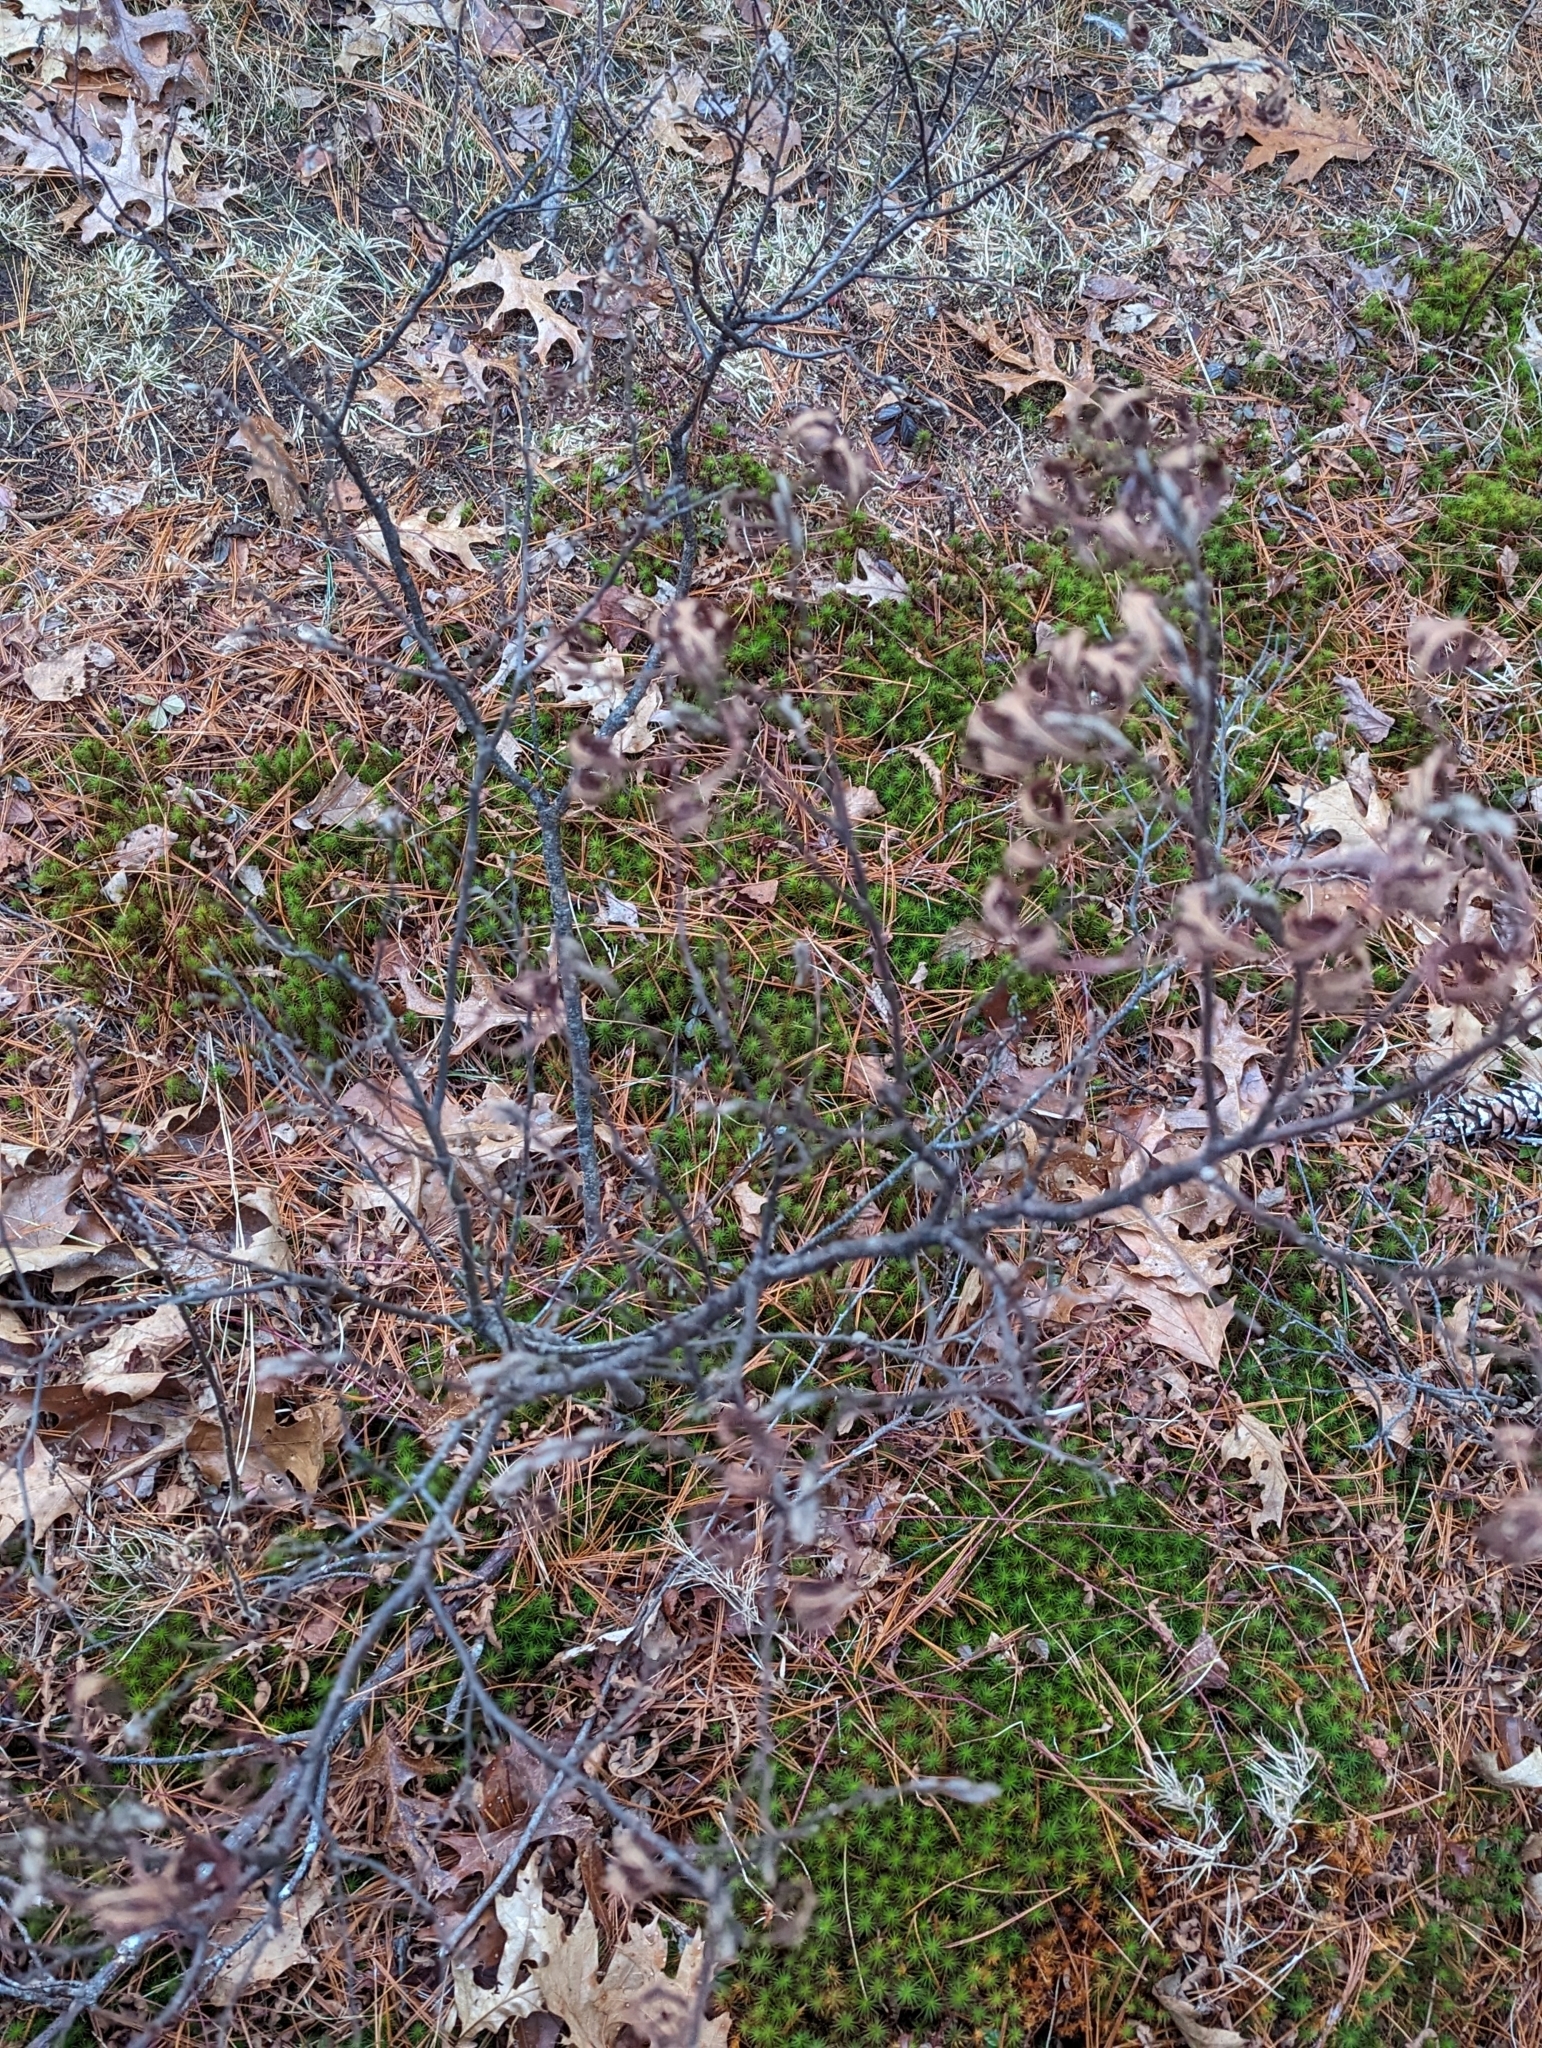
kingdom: Plantae
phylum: Tracheophyta
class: Magnoliopsida
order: Fagales
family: Myricaceae
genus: Comptonia
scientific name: Comptonia peregrina
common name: Sweet-fern
